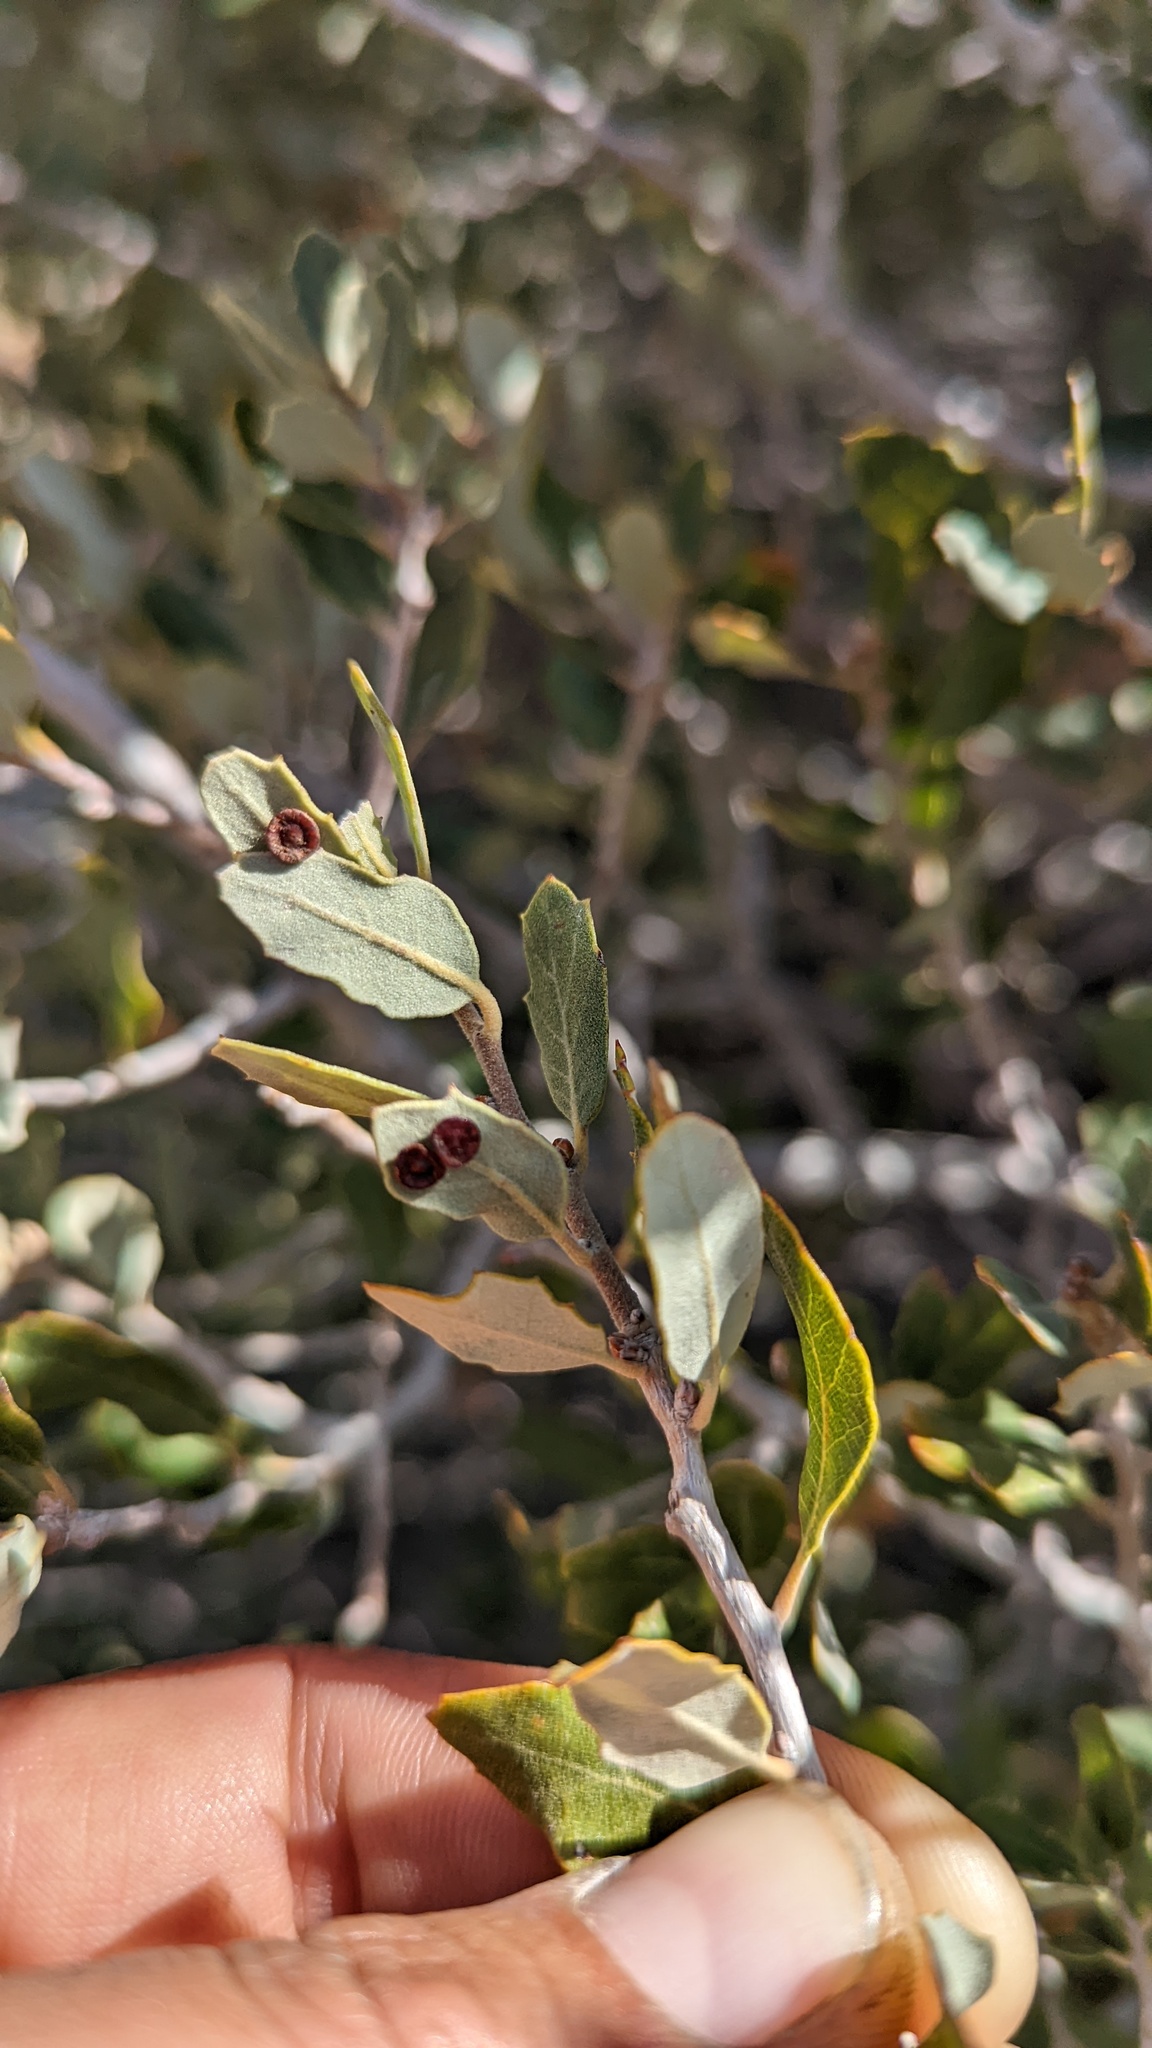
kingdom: Animalia
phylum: Arthropoda
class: Insecta
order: Hymenoptera
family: Cynipidae
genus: Andricus
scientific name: Andricus
